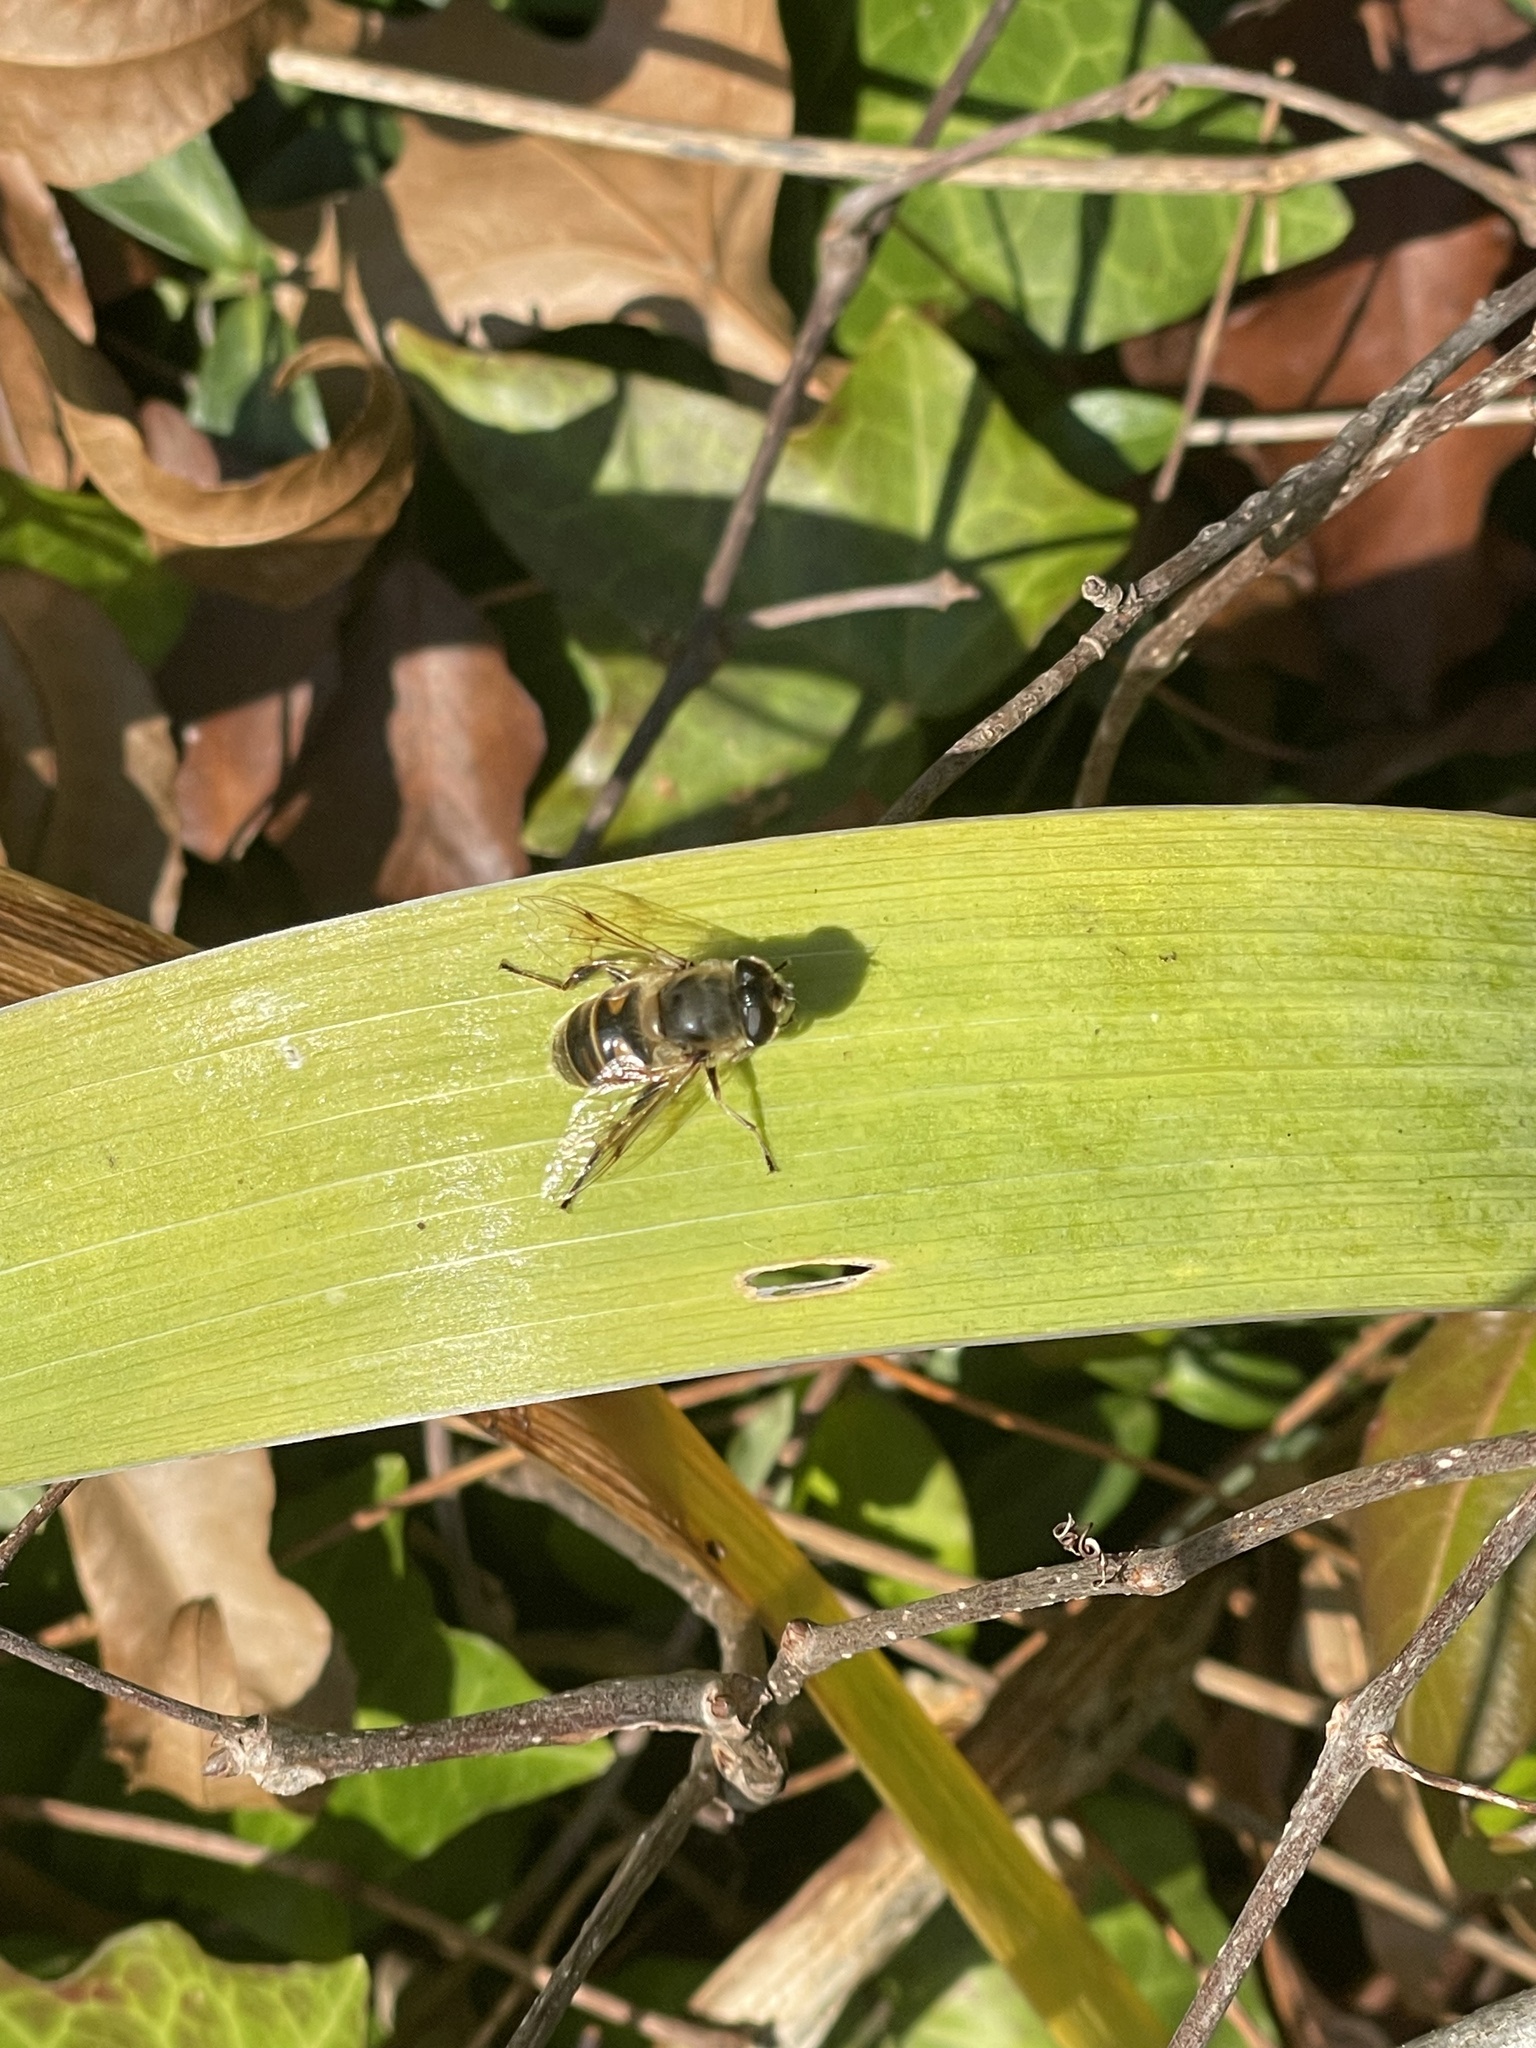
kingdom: Animalia
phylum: Arthropoda
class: Insecta
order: Diptera
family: Syrphidae
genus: Eristalis
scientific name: Eristalis tenax
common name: Drone fly
